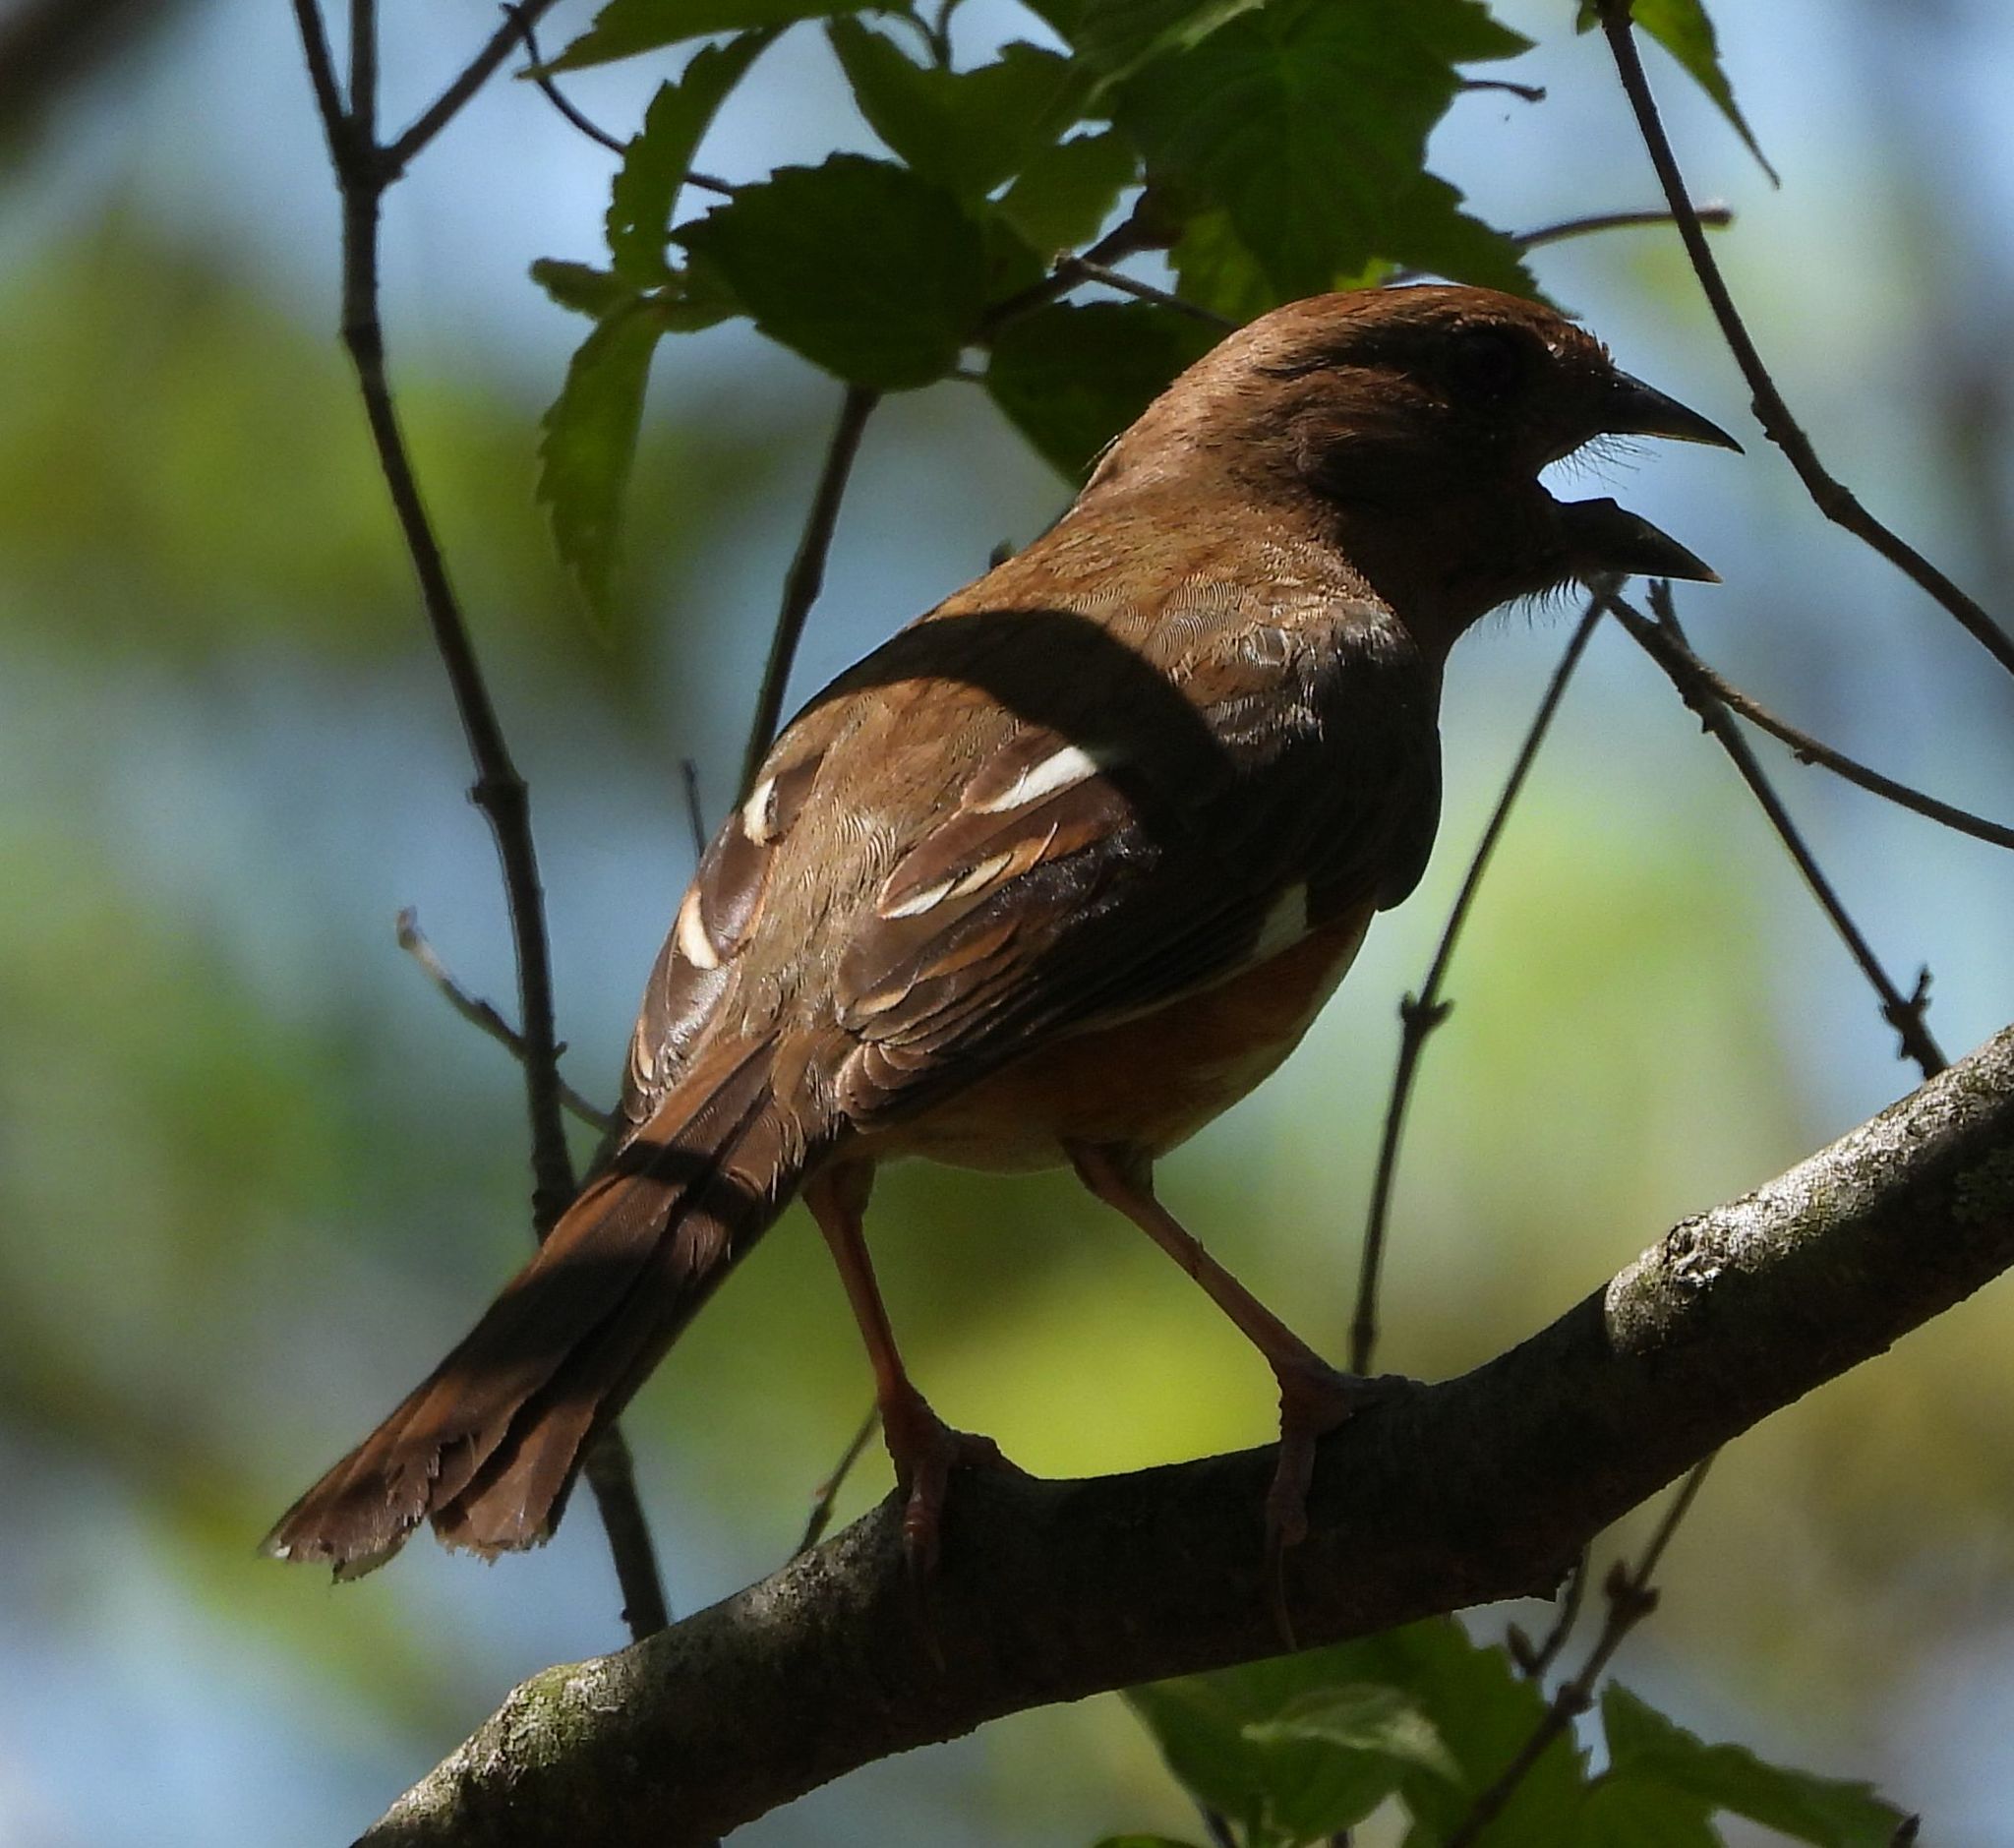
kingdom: Animalia
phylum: Chordata
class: Aves
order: Passeriformes
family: Passerellidae
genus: Pipilo
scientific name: Pipilo erythrophthalmus
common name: Eastern towhee
